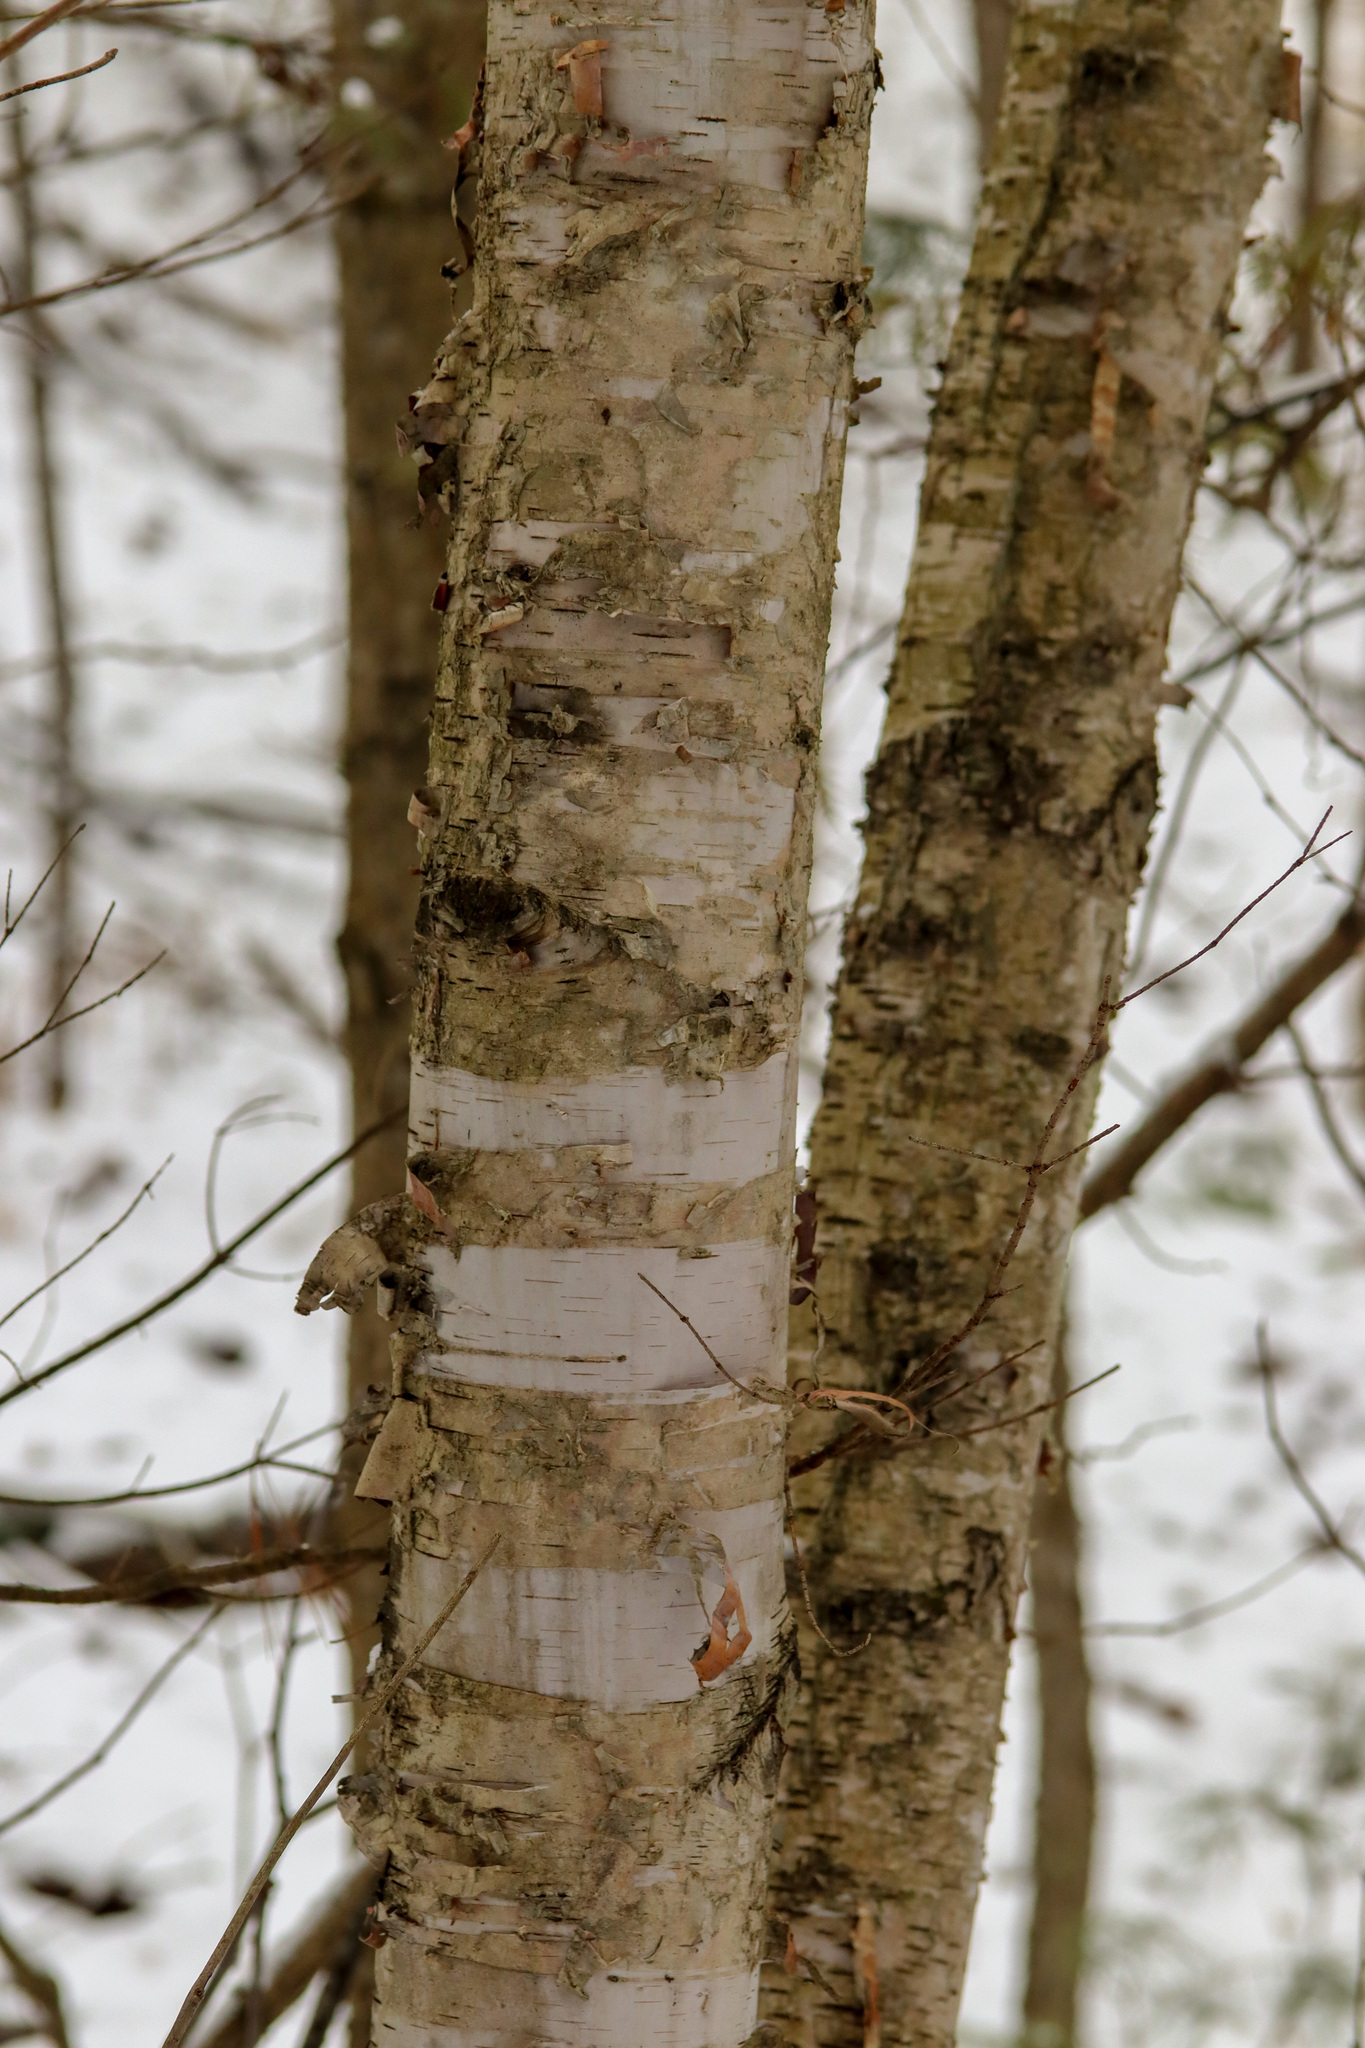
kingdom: Plantae
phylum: Tracheophyta
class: Magnoliopsida
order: Fagales
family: Betulaceae
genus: Betula
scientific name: Betula papyrifera
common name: Paper birch
